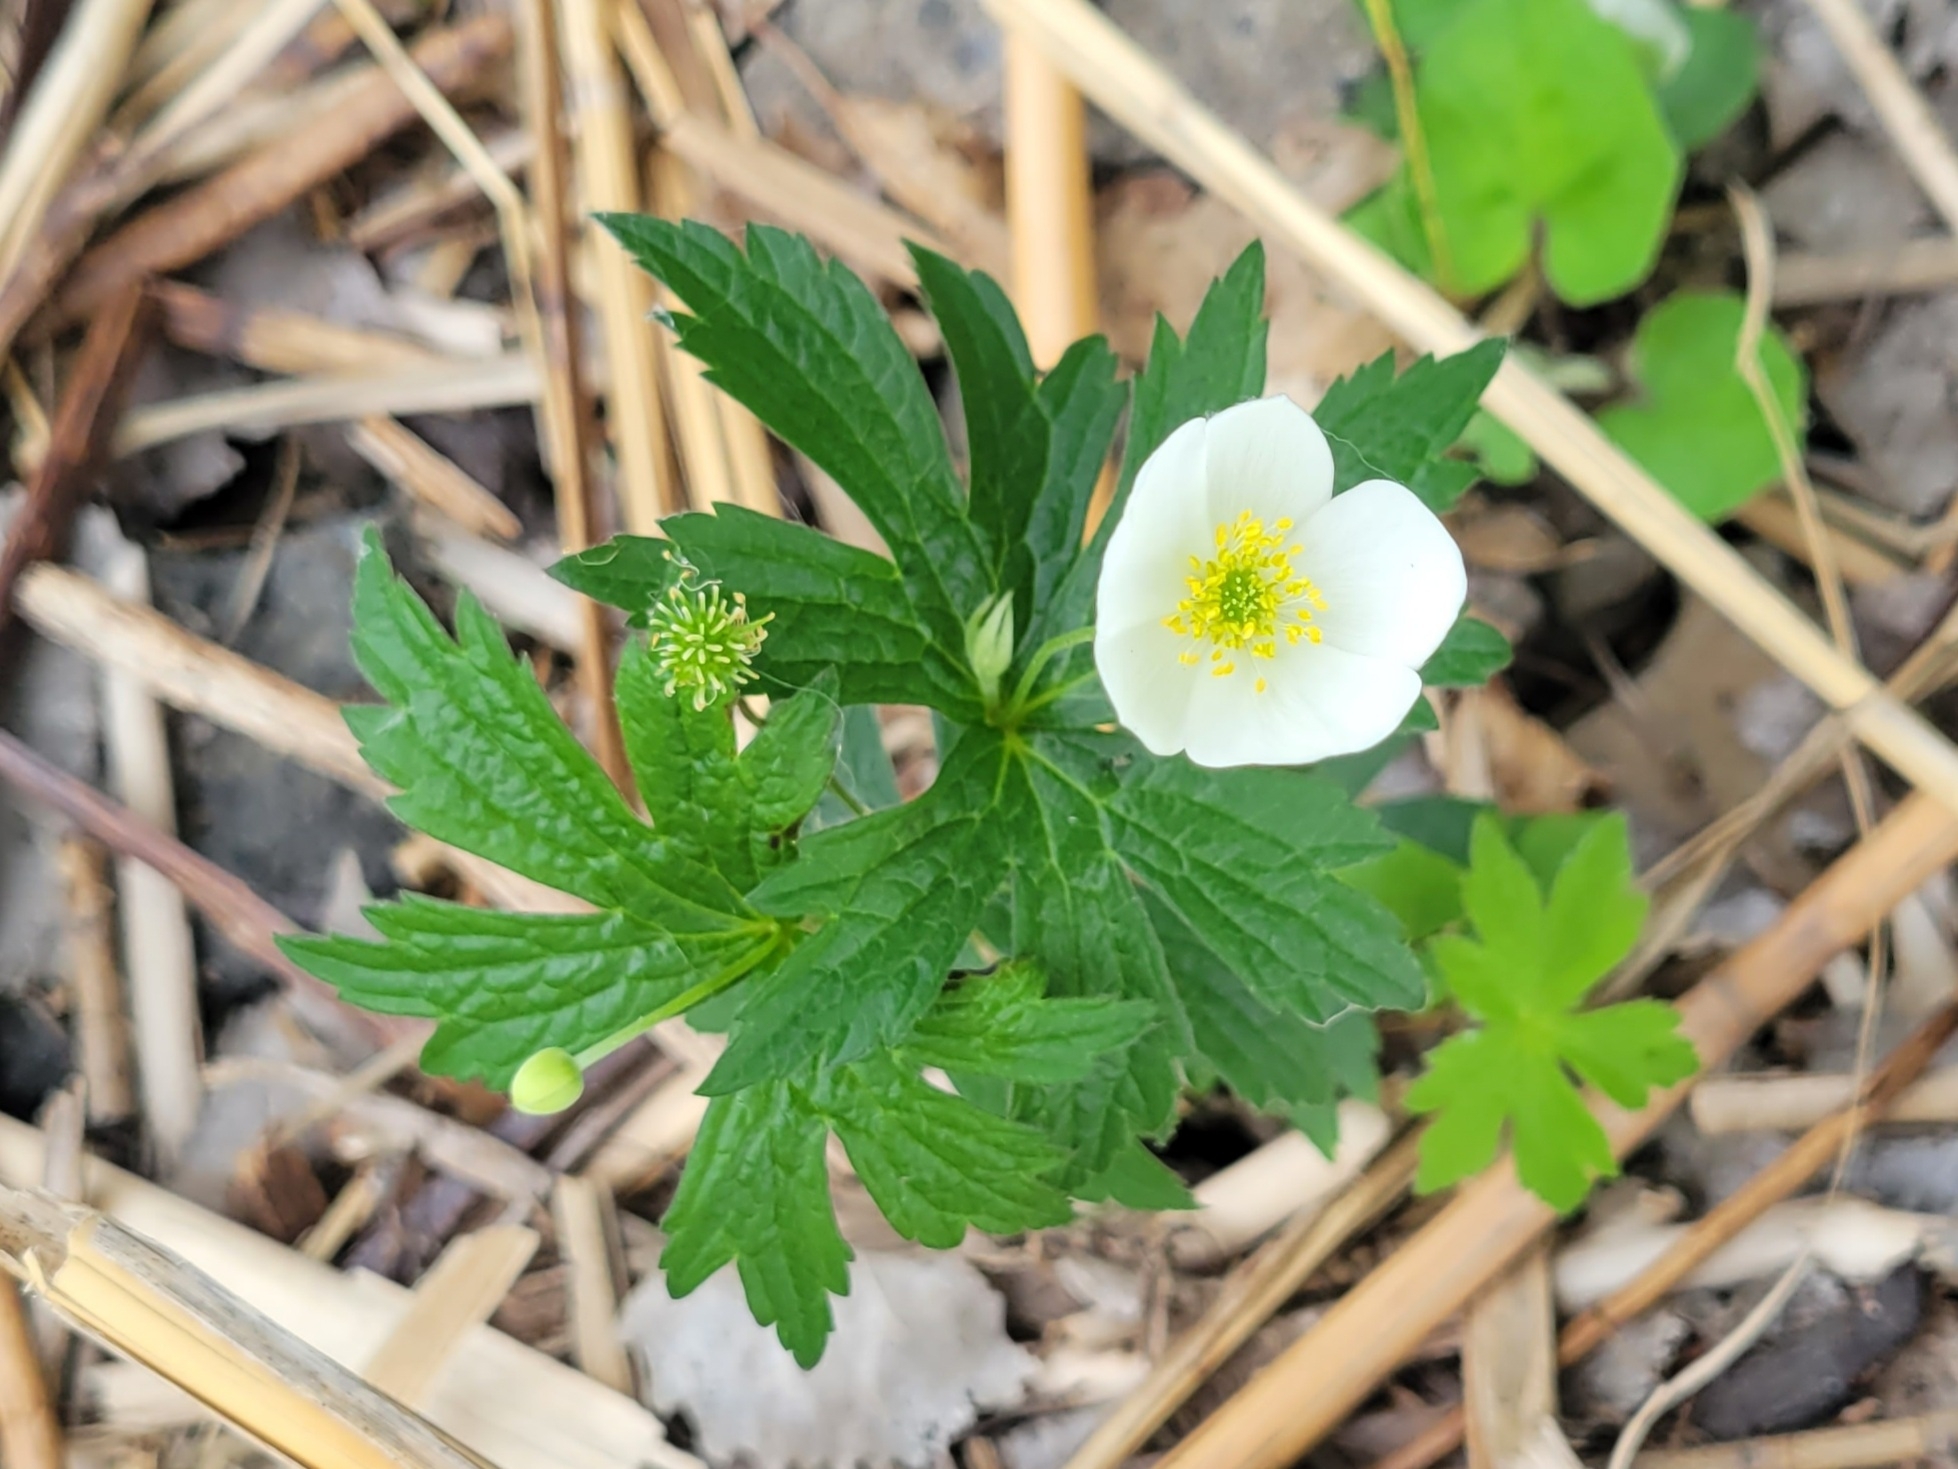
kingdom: Plantae
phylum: Tracheophyta
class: Magnoliopsida
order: Ranunculales
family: Ranunculaceae
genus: Anemonastrum
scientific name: Anemonastrum canadense
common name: Canada anemone
